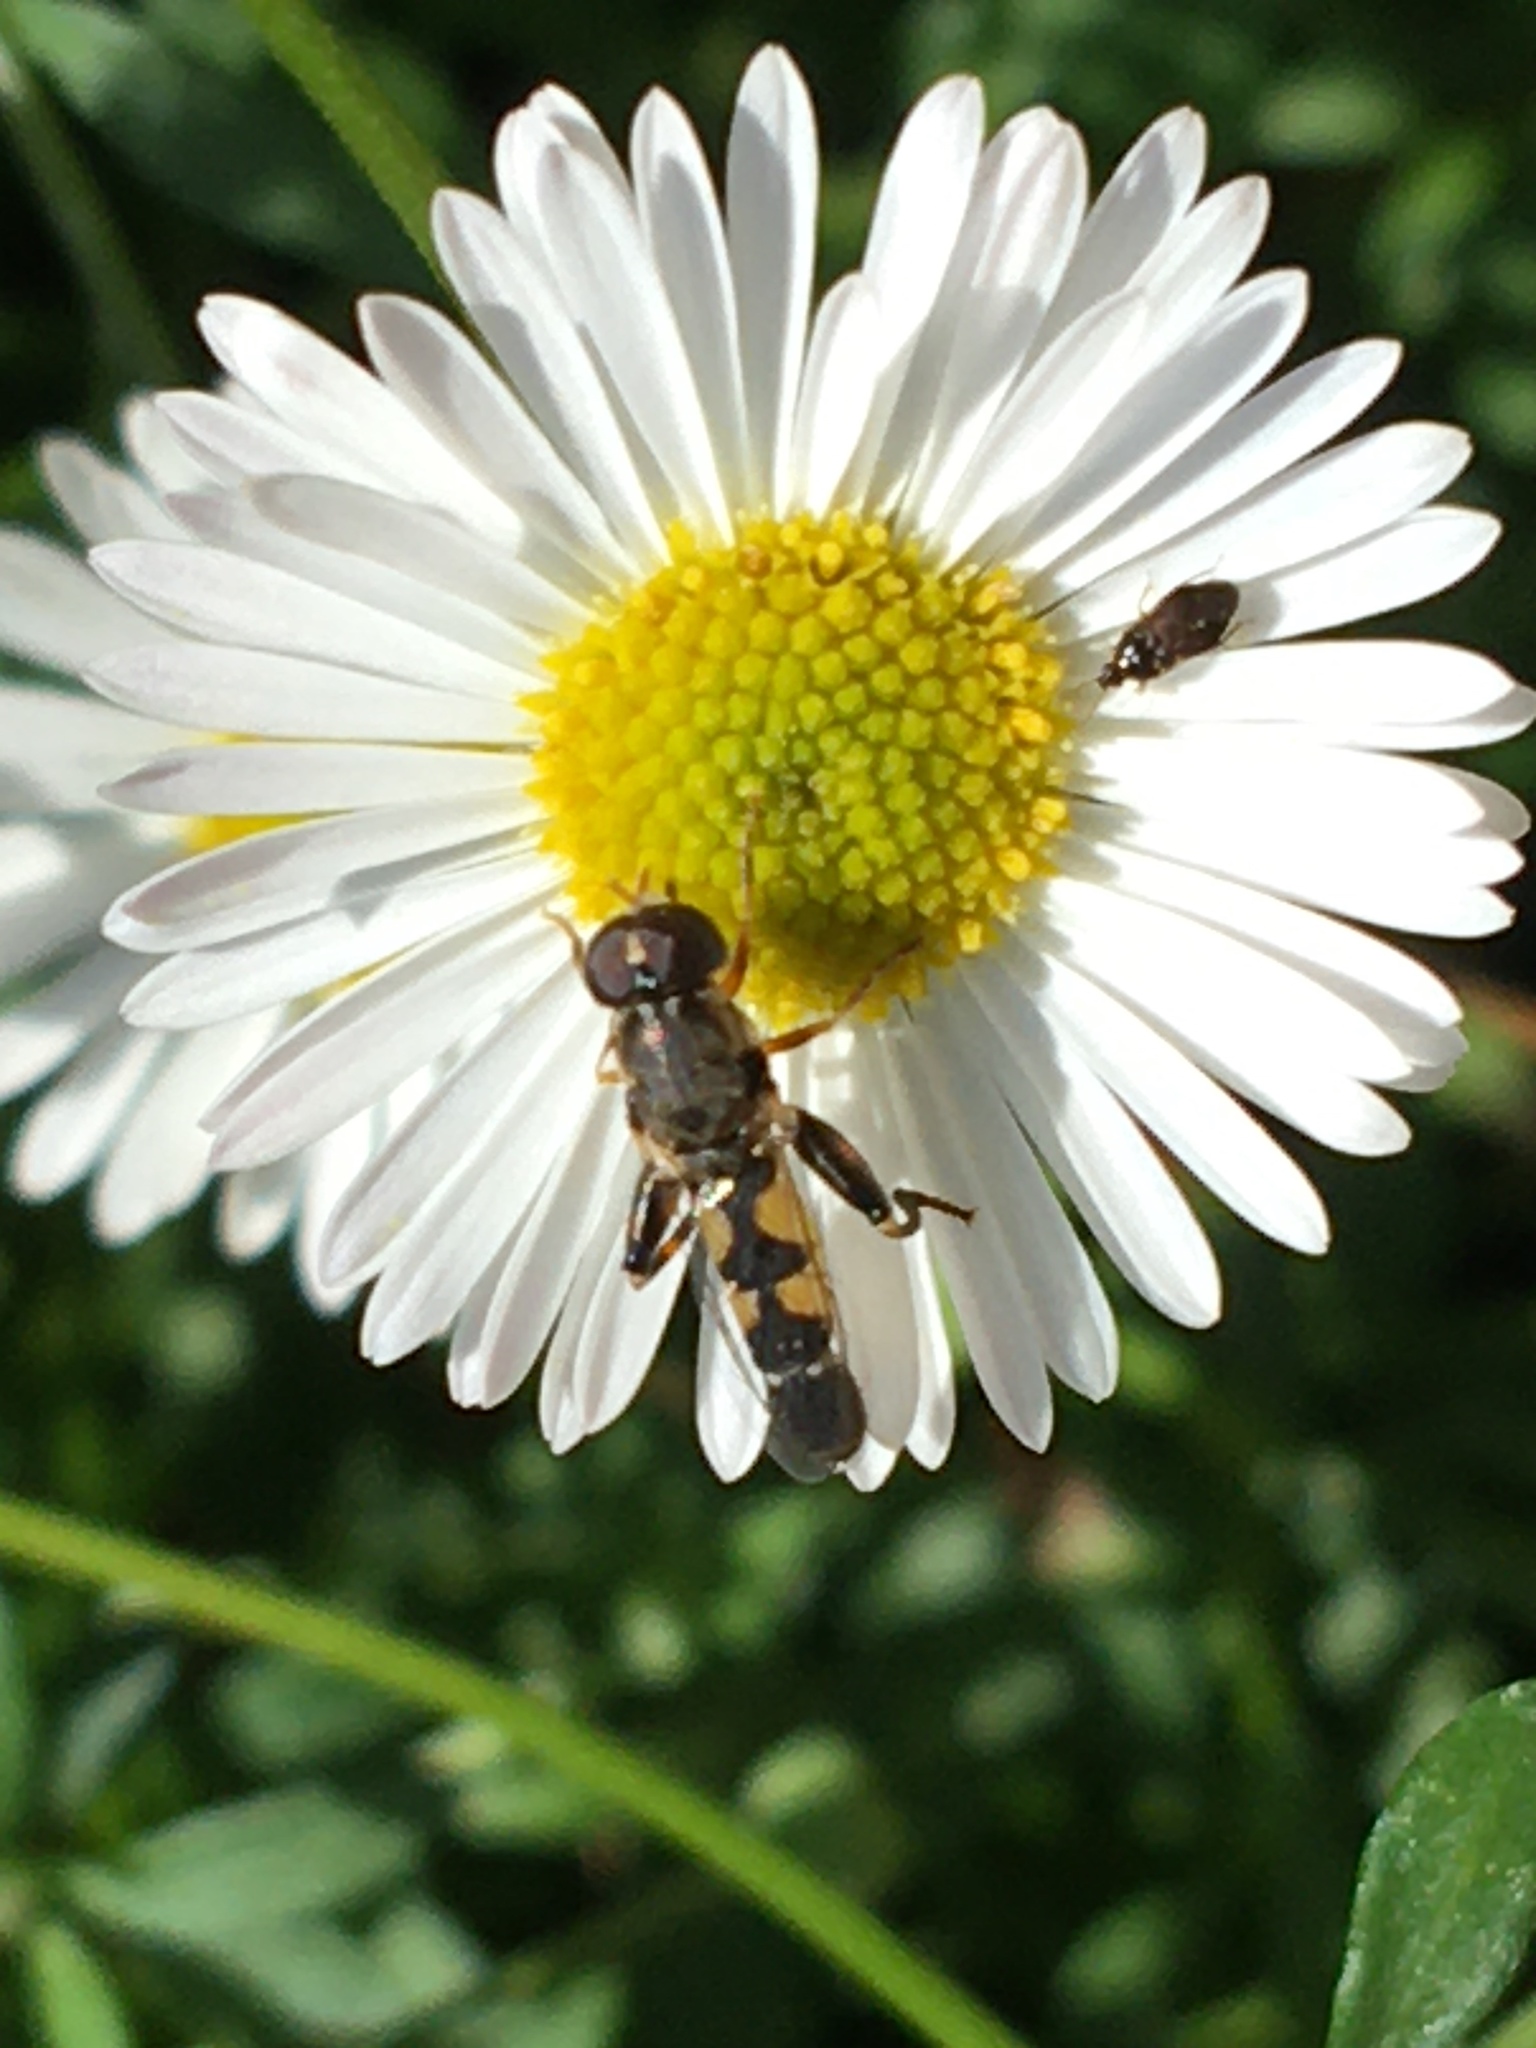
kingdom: Animalia
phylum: Arthropoda
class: Insecta
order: Diptera
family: Syrphidae
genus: Syritta
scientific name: Syritta pipiens
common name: Hover fly
